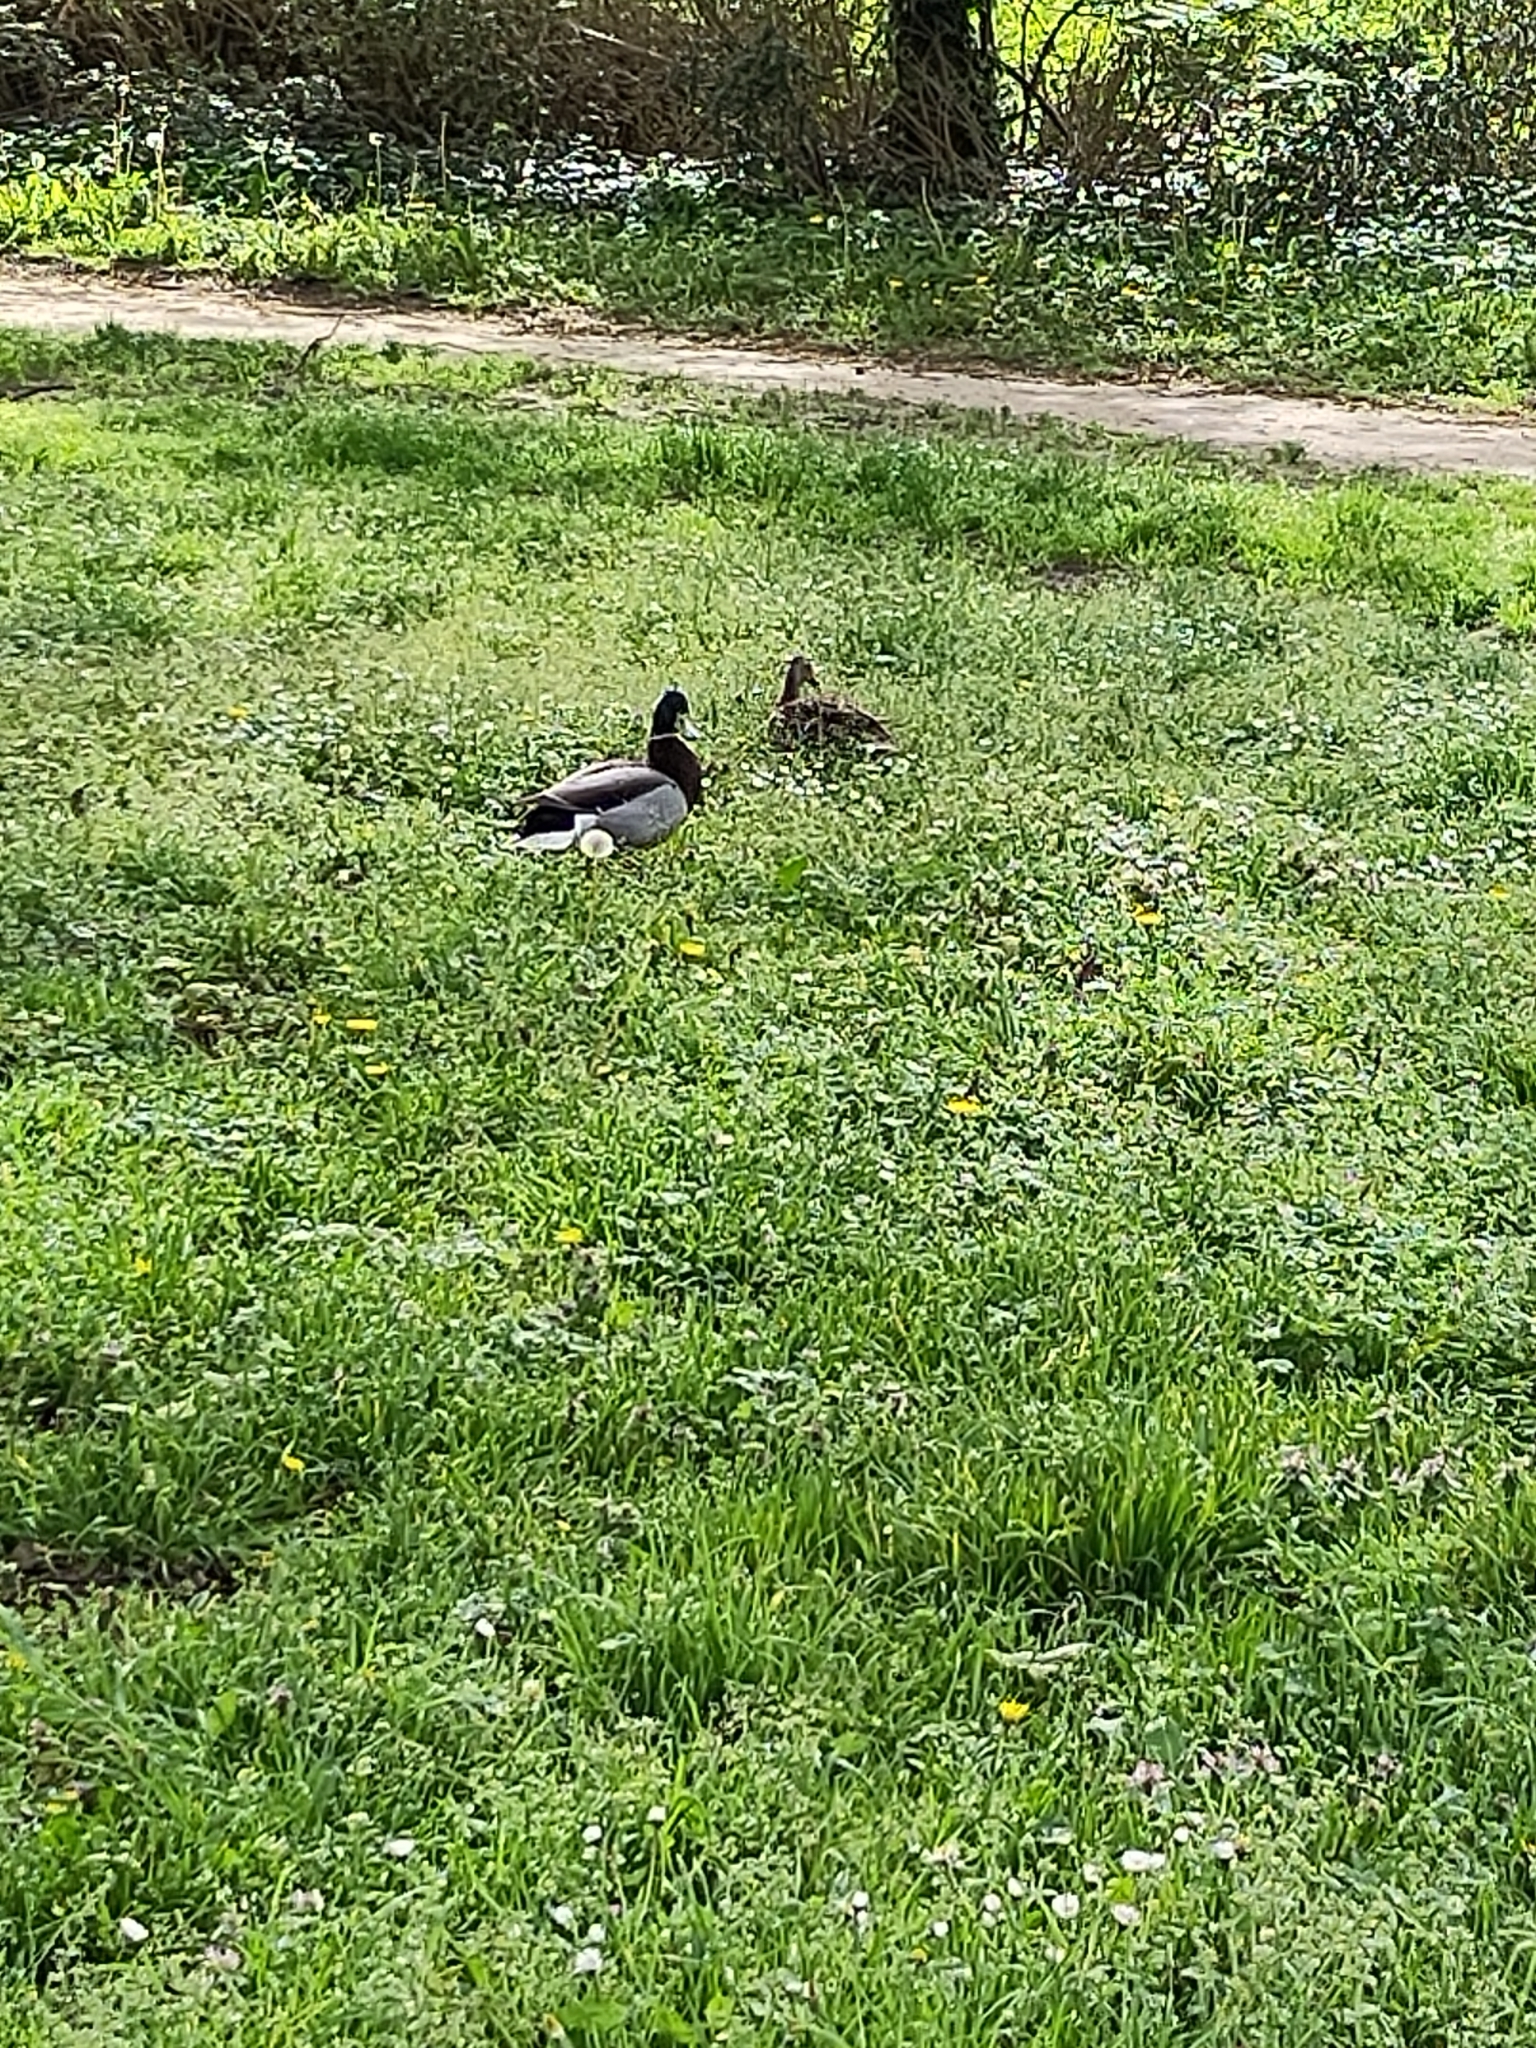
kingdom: Animalia
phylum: Chordata
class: Aves
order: Anseriformes
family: Anatidae
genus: Anas
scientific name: Anas platyrhynchos
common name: Mallard
